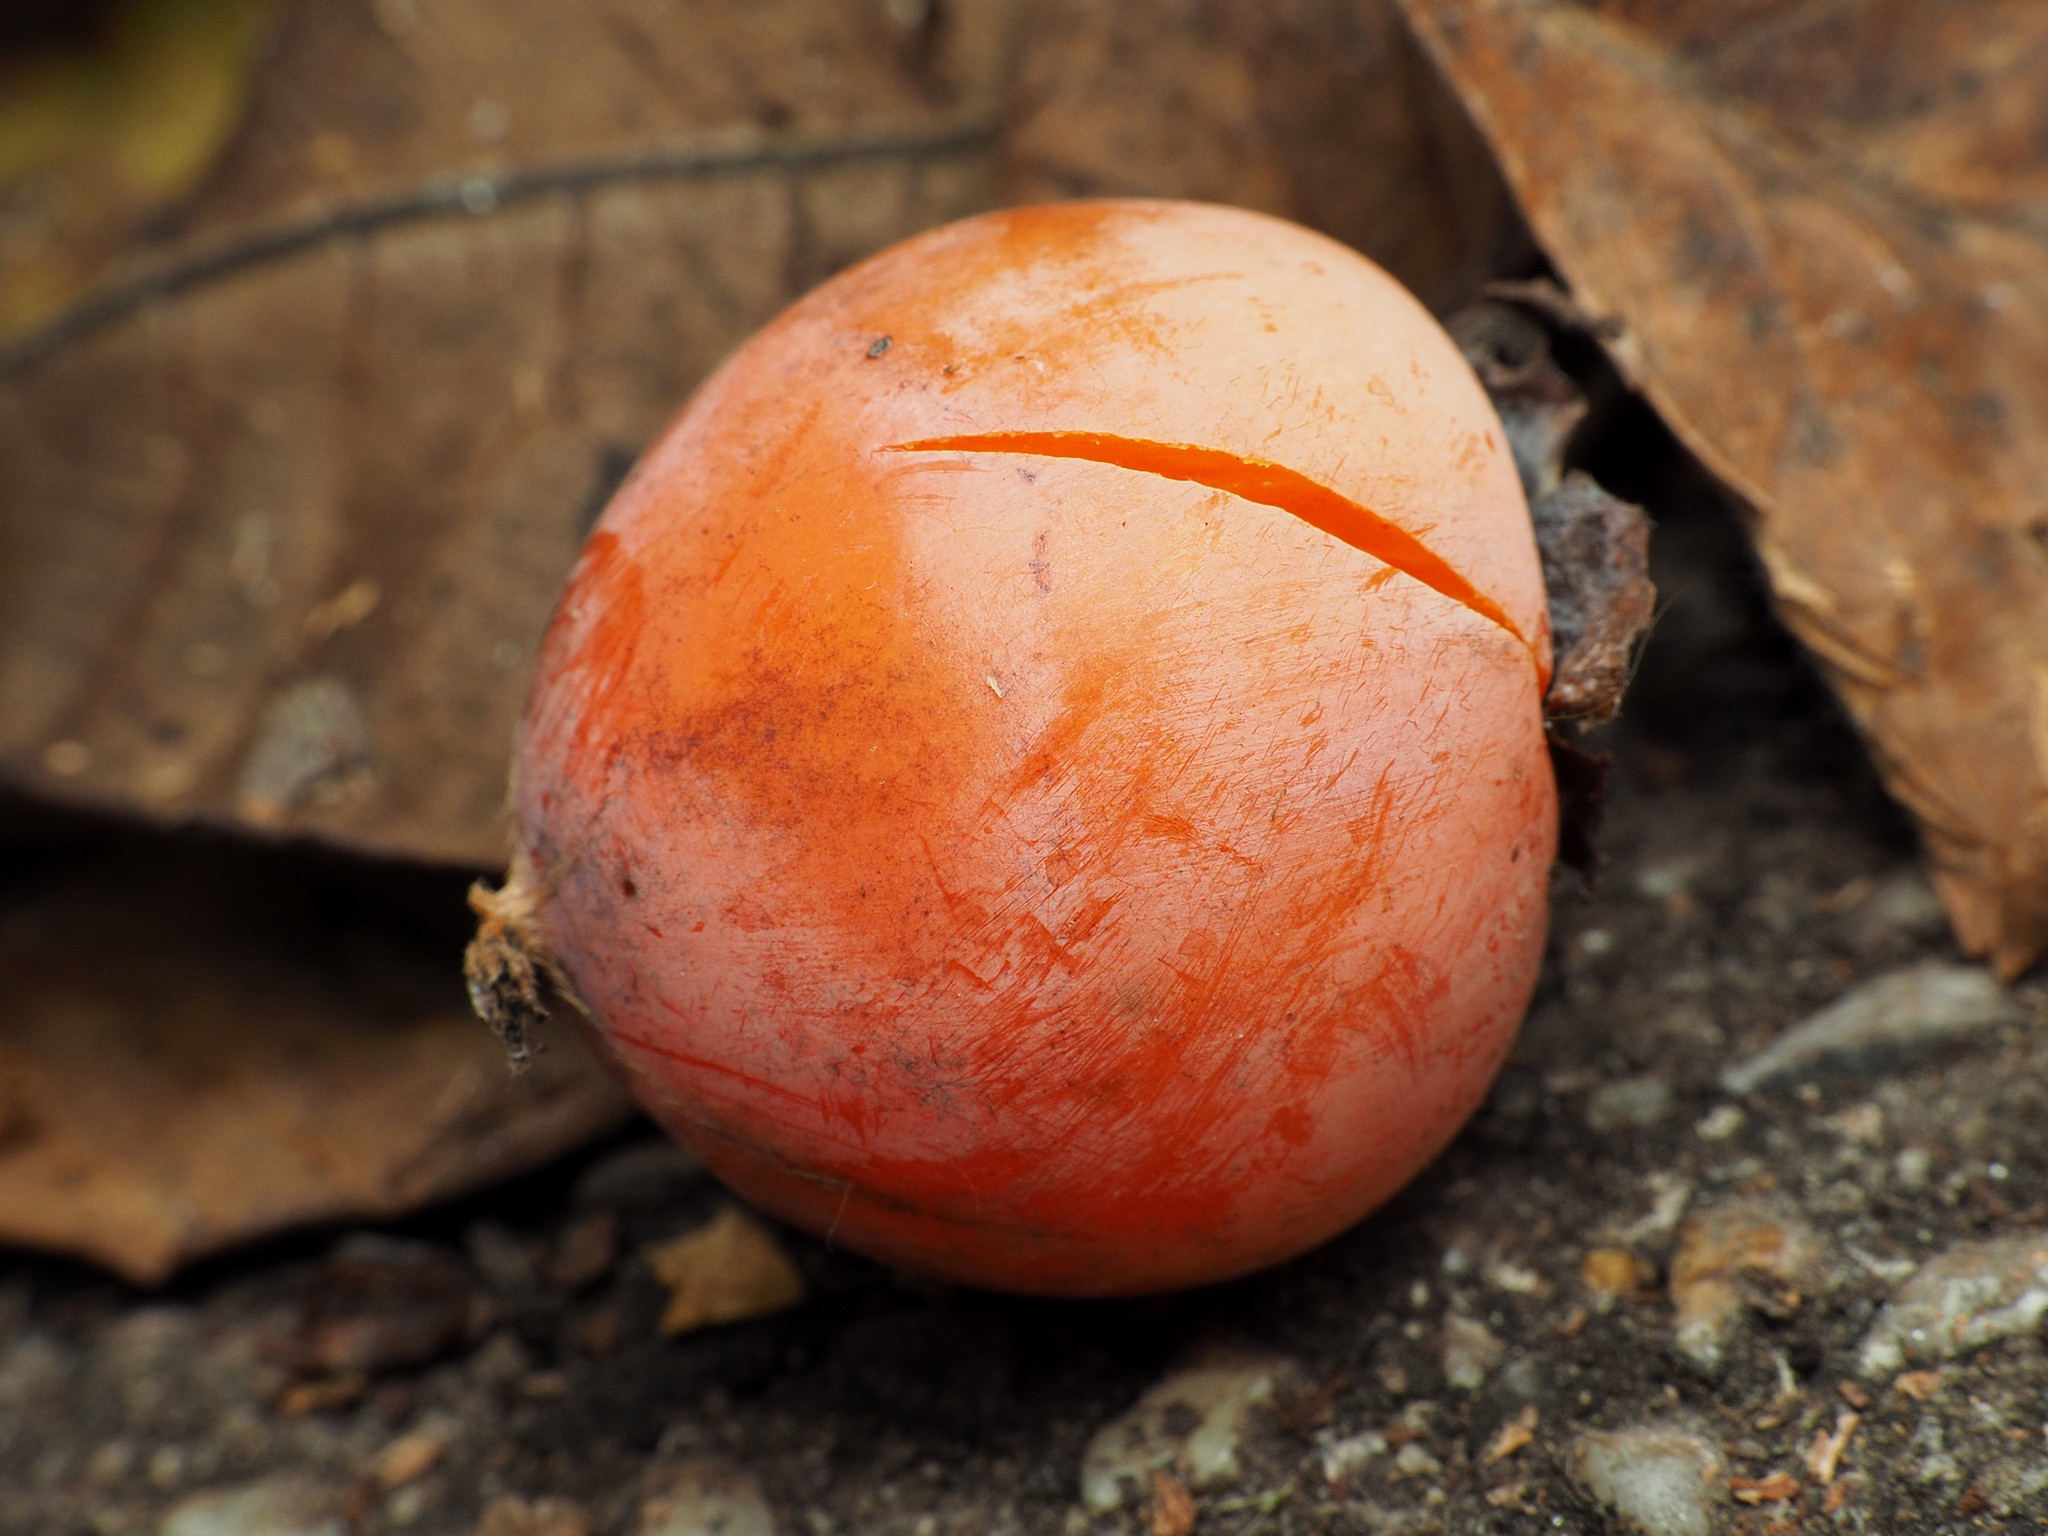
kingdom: Plantae
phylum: Tracheophyta
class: Magnoliopsida
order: Ericales
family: Ebenaceae
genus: Diospyros
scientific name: Diospyros virginiana
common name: Persimmon
